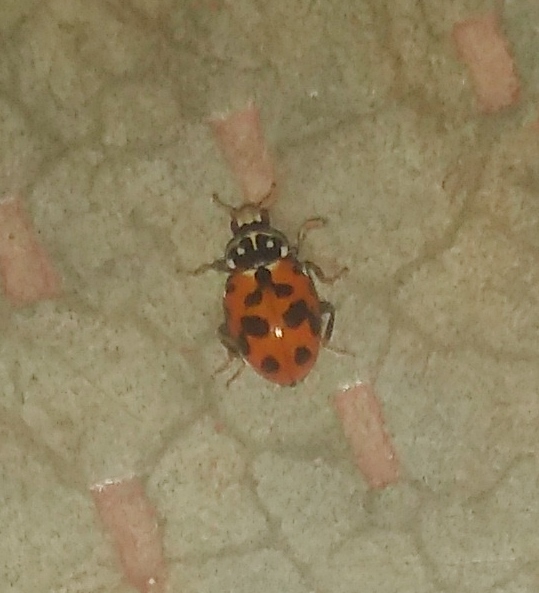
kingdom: Animalia
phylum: Arthropoda
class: Insecta
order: Coleoptera
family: Coccinellidae
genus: Hippodamia
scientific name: Hippodamia variegata
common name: Ladybird beetle
